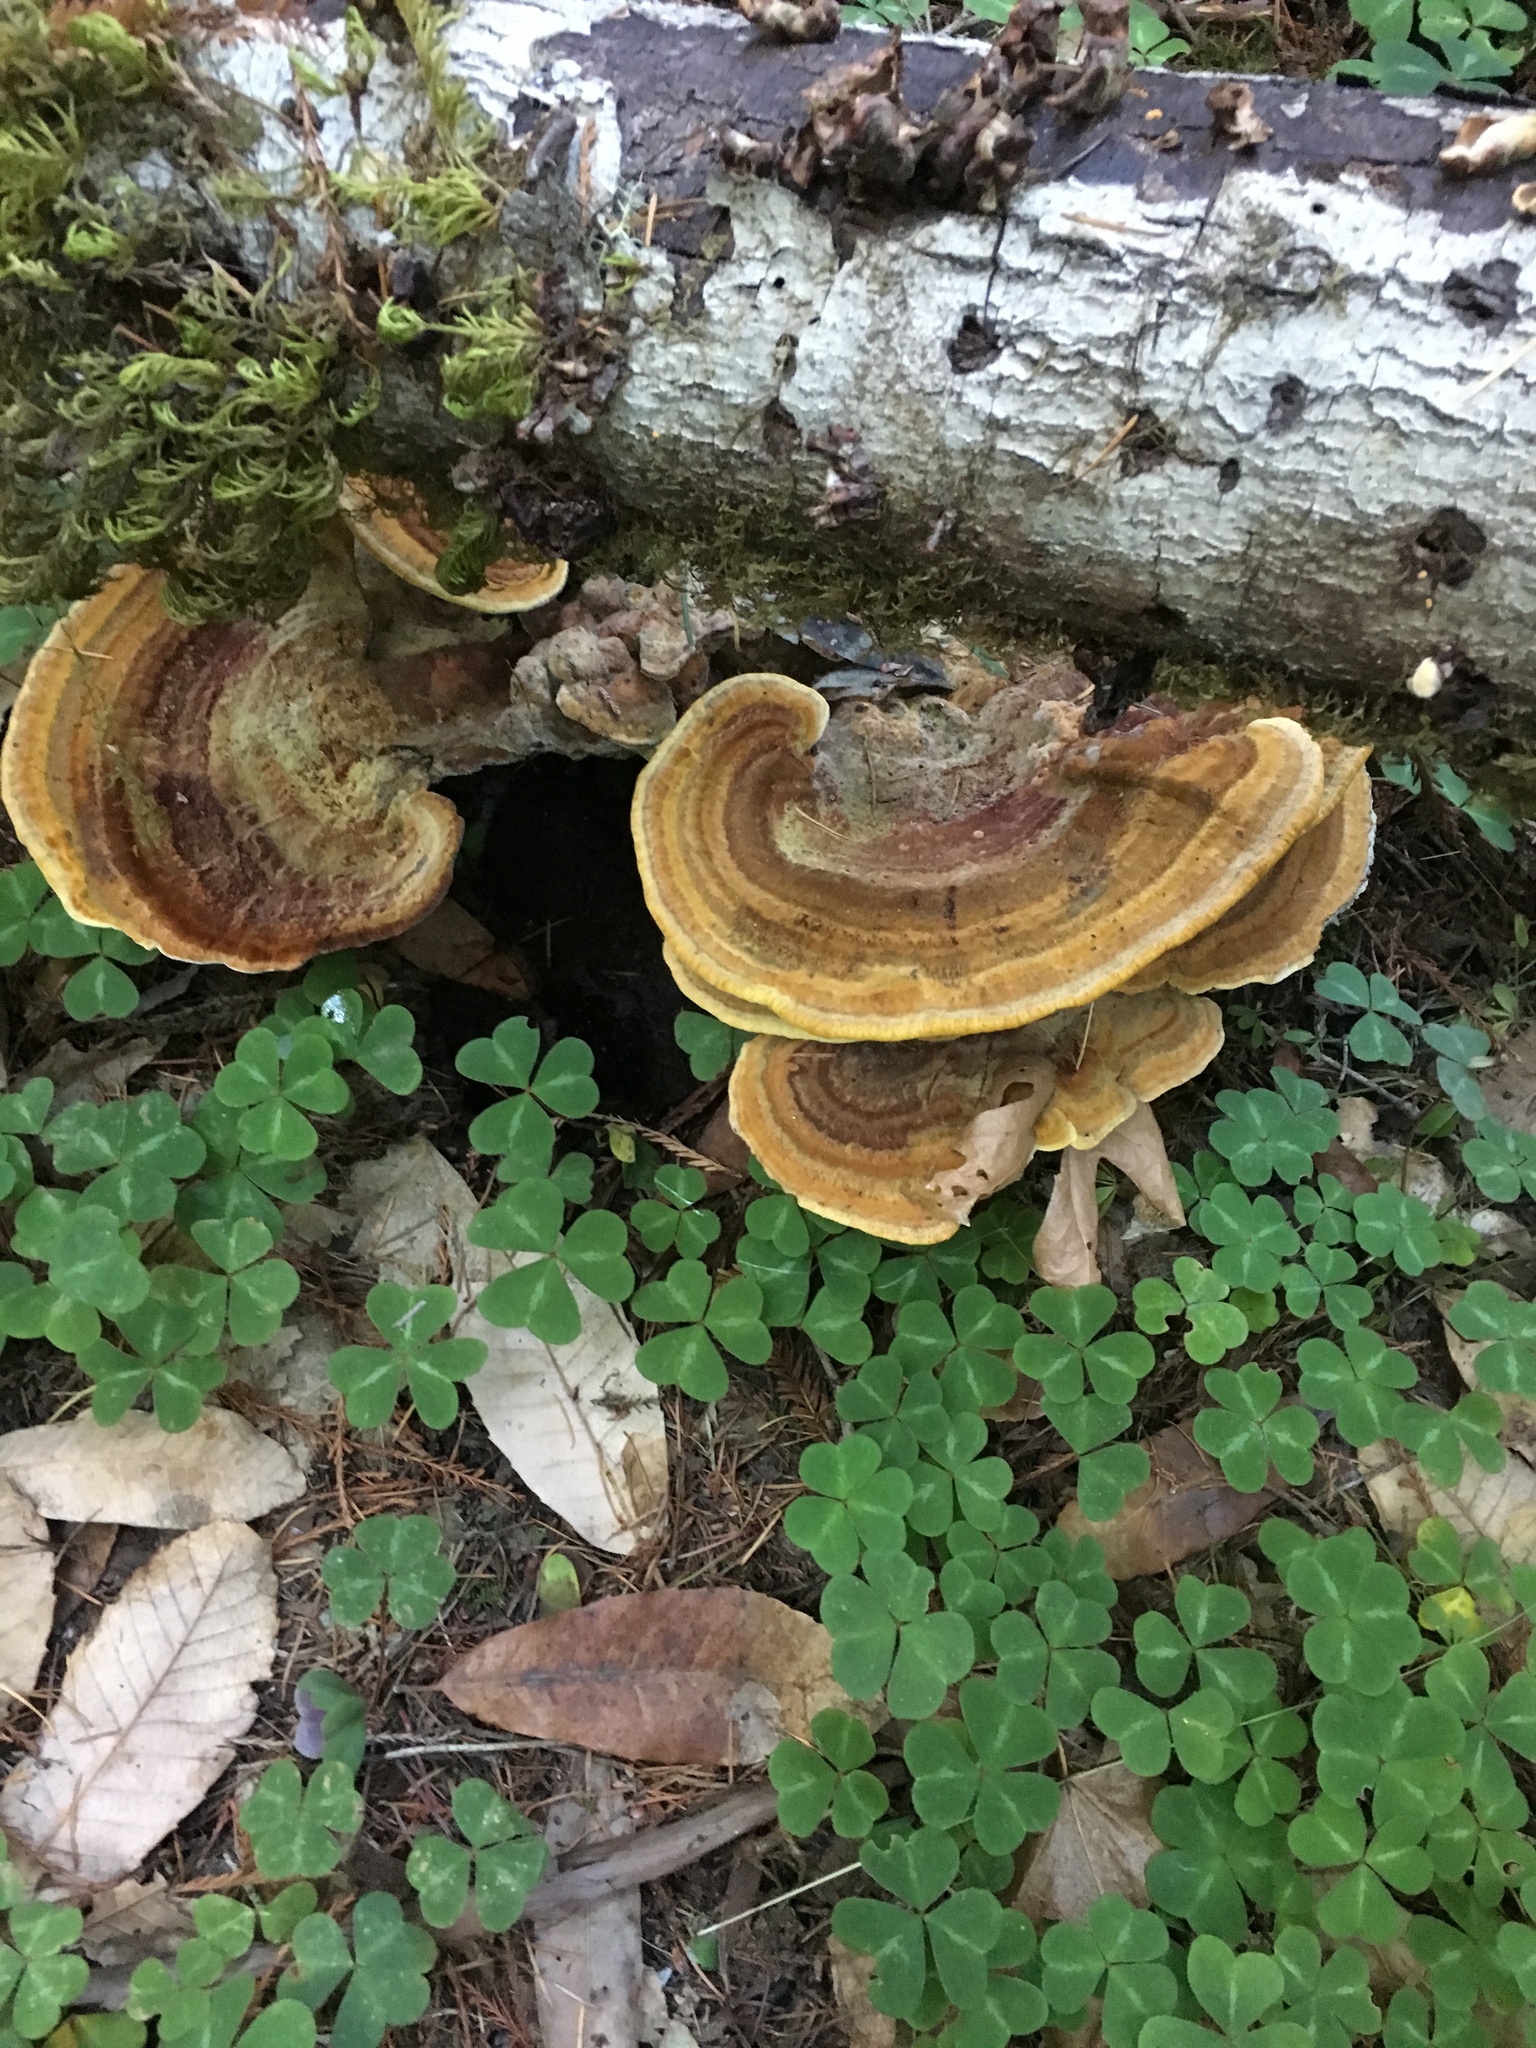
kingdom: Fungi
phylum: Basidiomycota
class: Agaricomycetes
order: Polyporales
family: Laetiporaceae
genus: Phaeolus
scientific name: Phaeolus schweinitzii
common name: Dyer's mazegill
